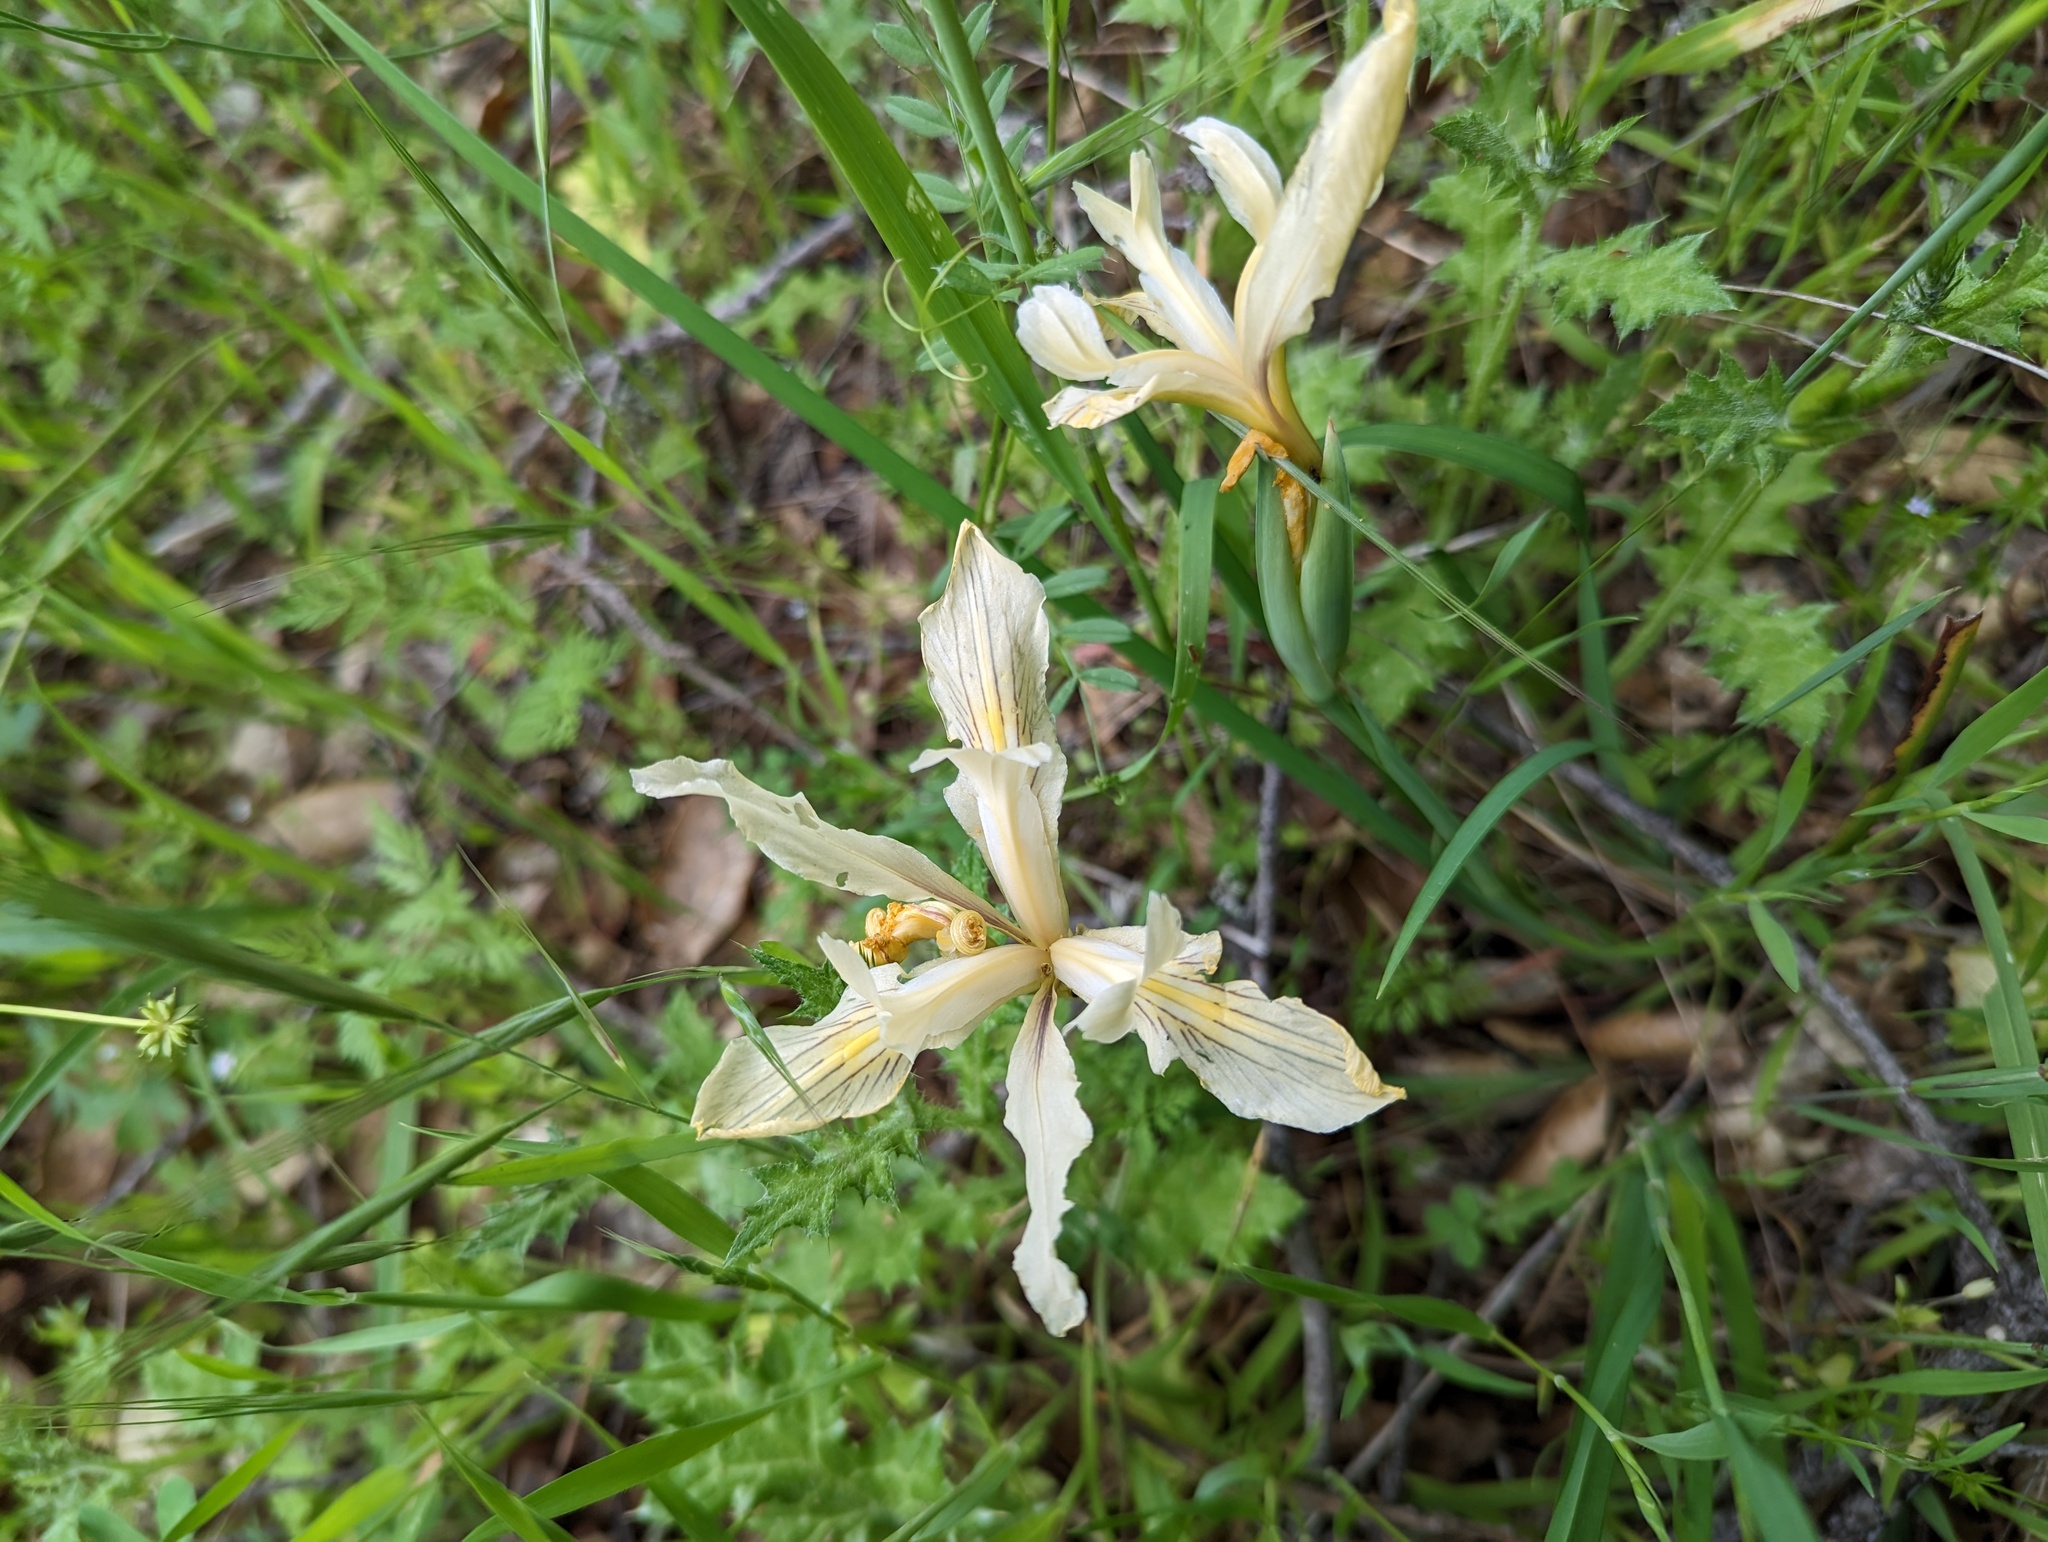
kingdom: Plantae
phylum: Tracheophyta
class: Liliopsida
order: Asparagales
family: Iridaceae
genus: Iris
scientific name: Iris fernaldii
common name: Fernald's iris
